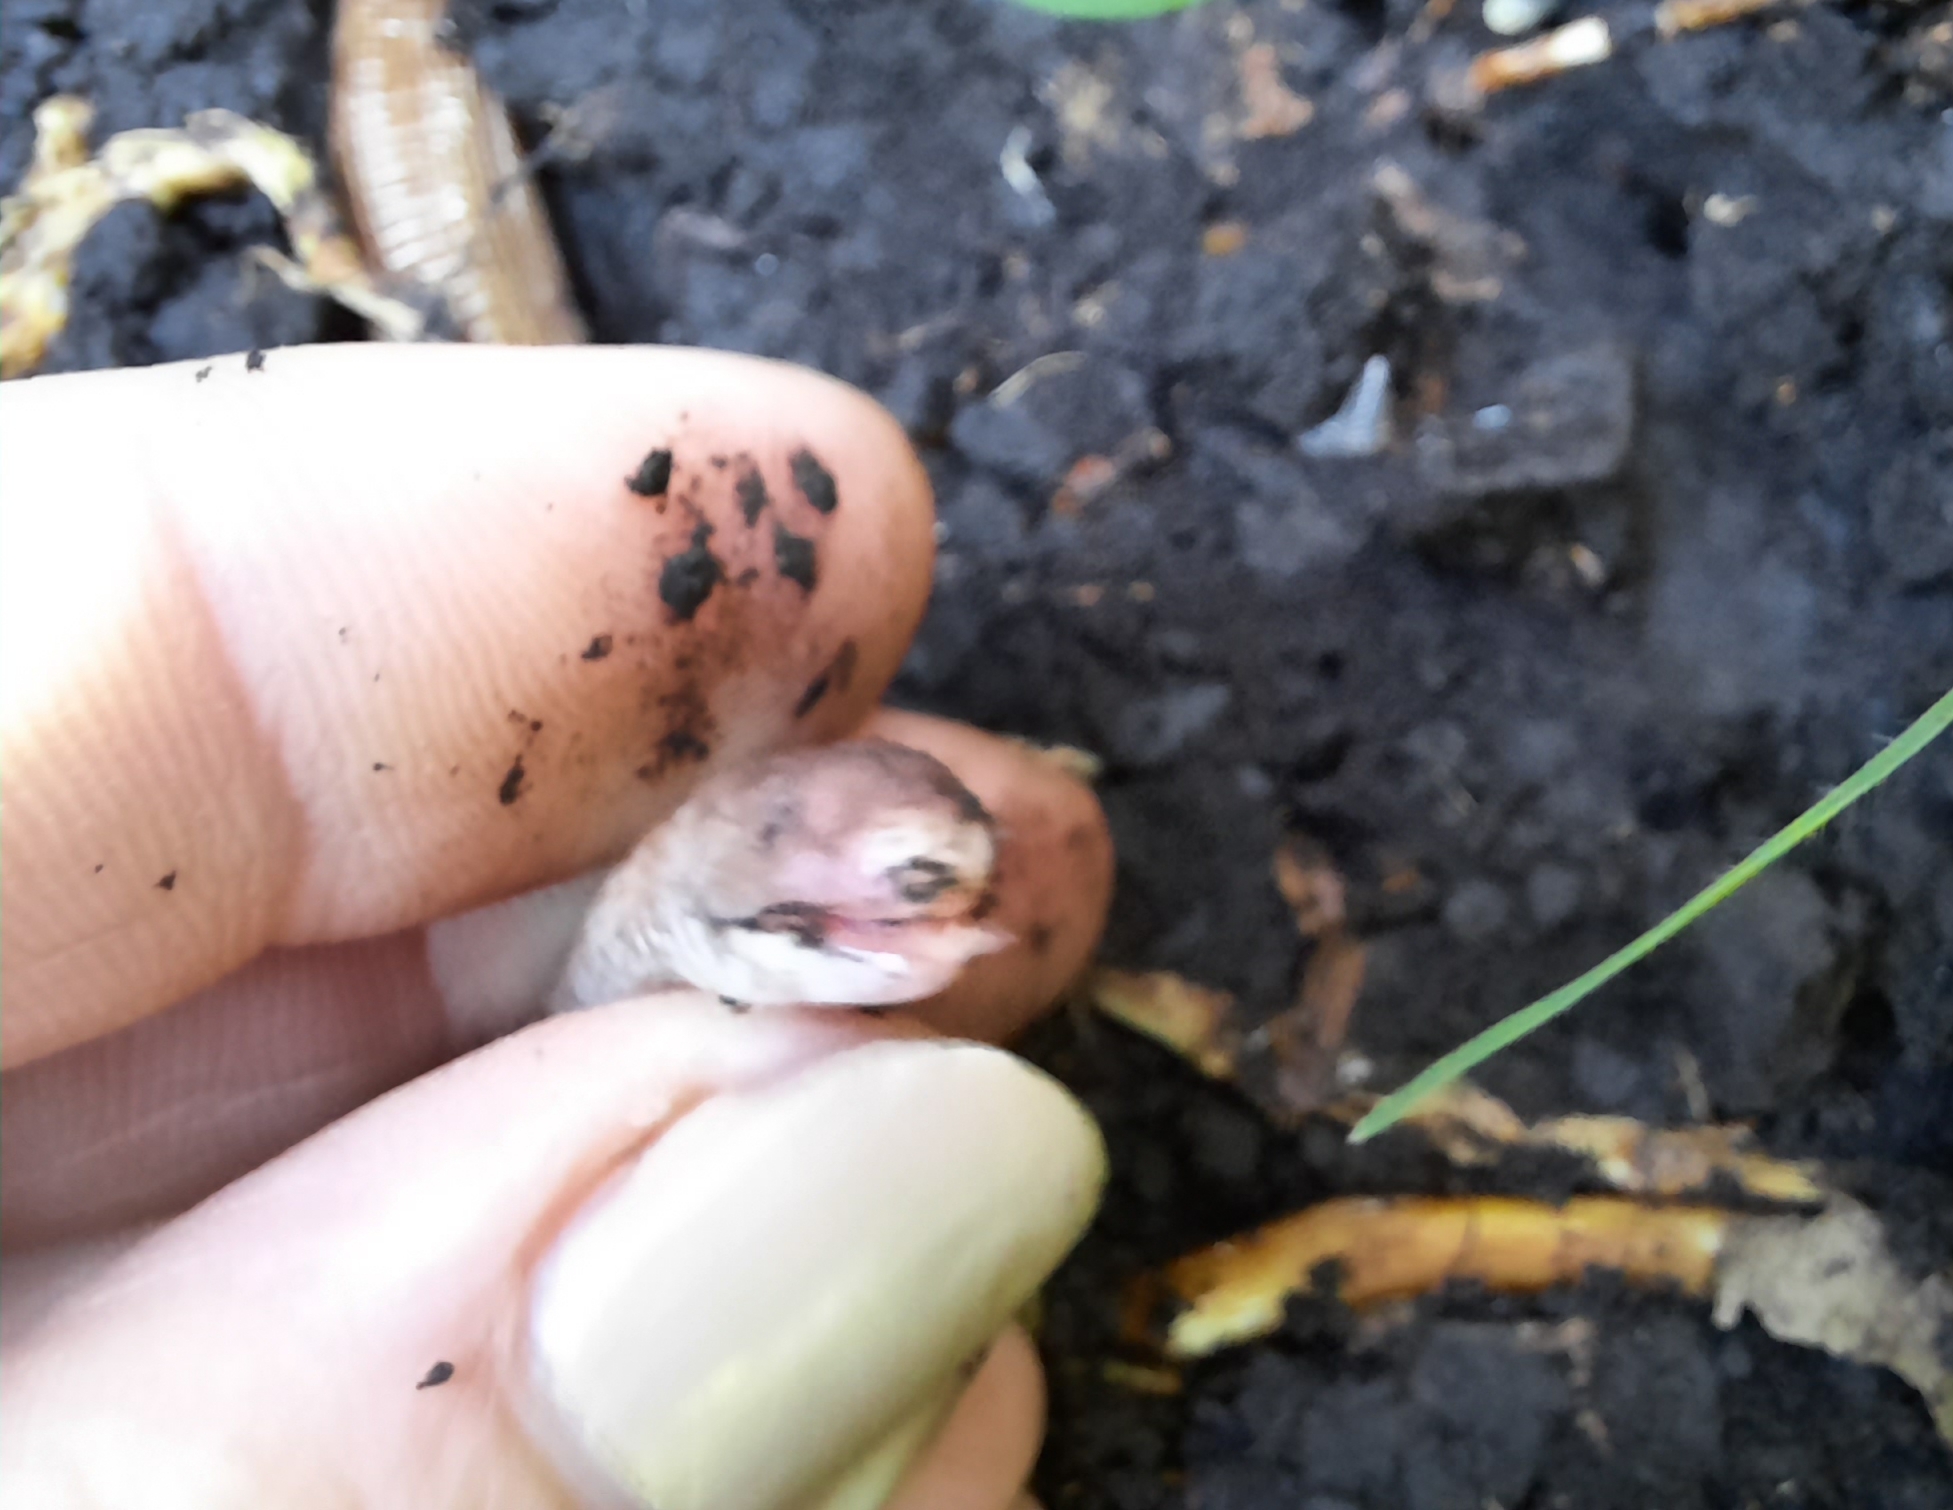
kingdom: Animalia
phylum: Chordata
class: Squamata
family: Amphisbaenidae
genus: Amphisbaena
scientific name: Amphisbaena darwinii
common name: Darwin's ringed worm lizard
